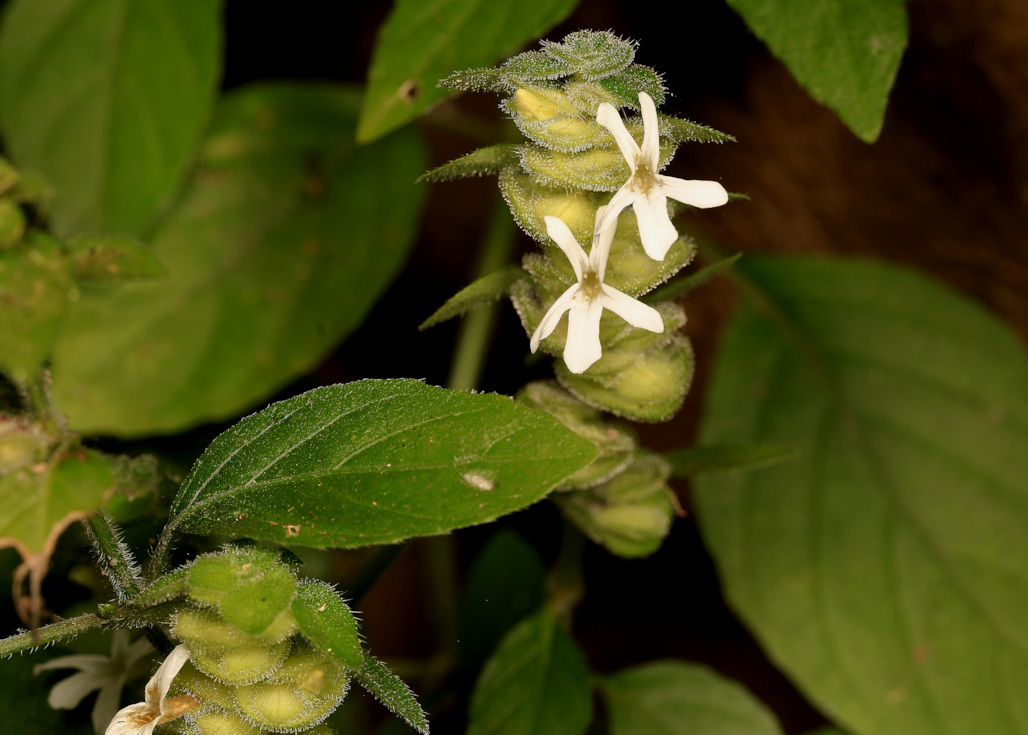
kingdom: Plantae
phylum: Tracheophyta
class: Magnoliopsida
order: Lamiales
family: Acanthaceae
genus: Phaulopsis
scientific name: Phaulopsis imbricata
